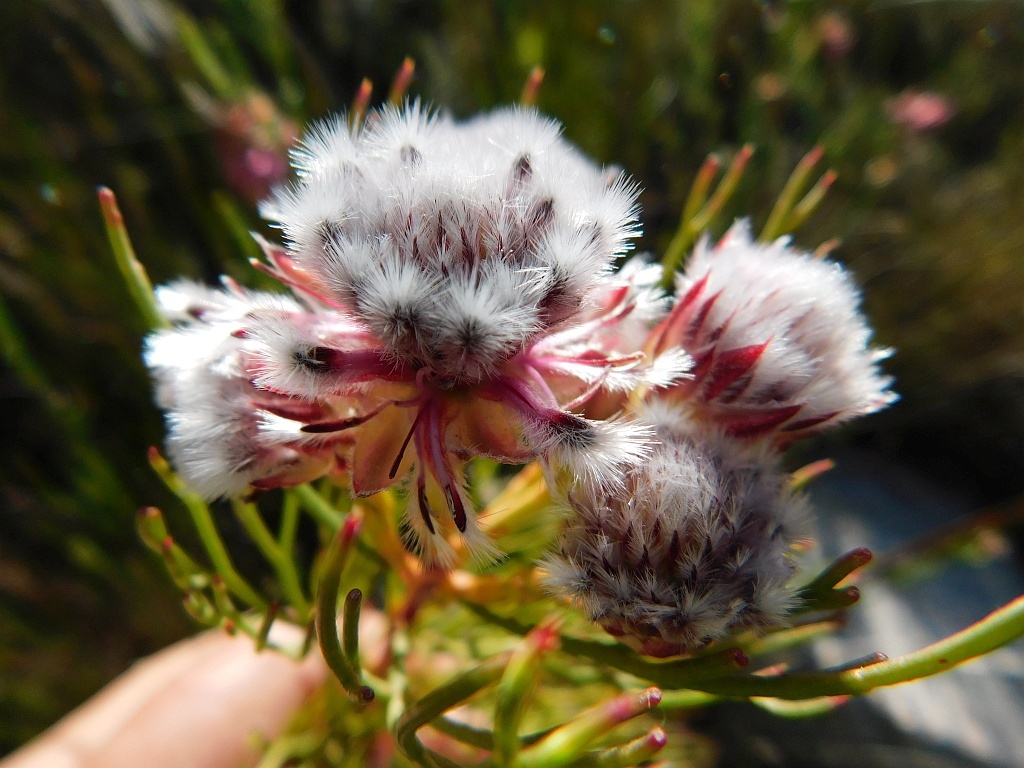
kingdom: Plantae
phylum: Tracheophyta
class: Magnoliopsida
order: Proteales
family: Proteaceae
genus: Serruria
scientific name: Serruria phylicoides
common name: Bearded spiderhead
